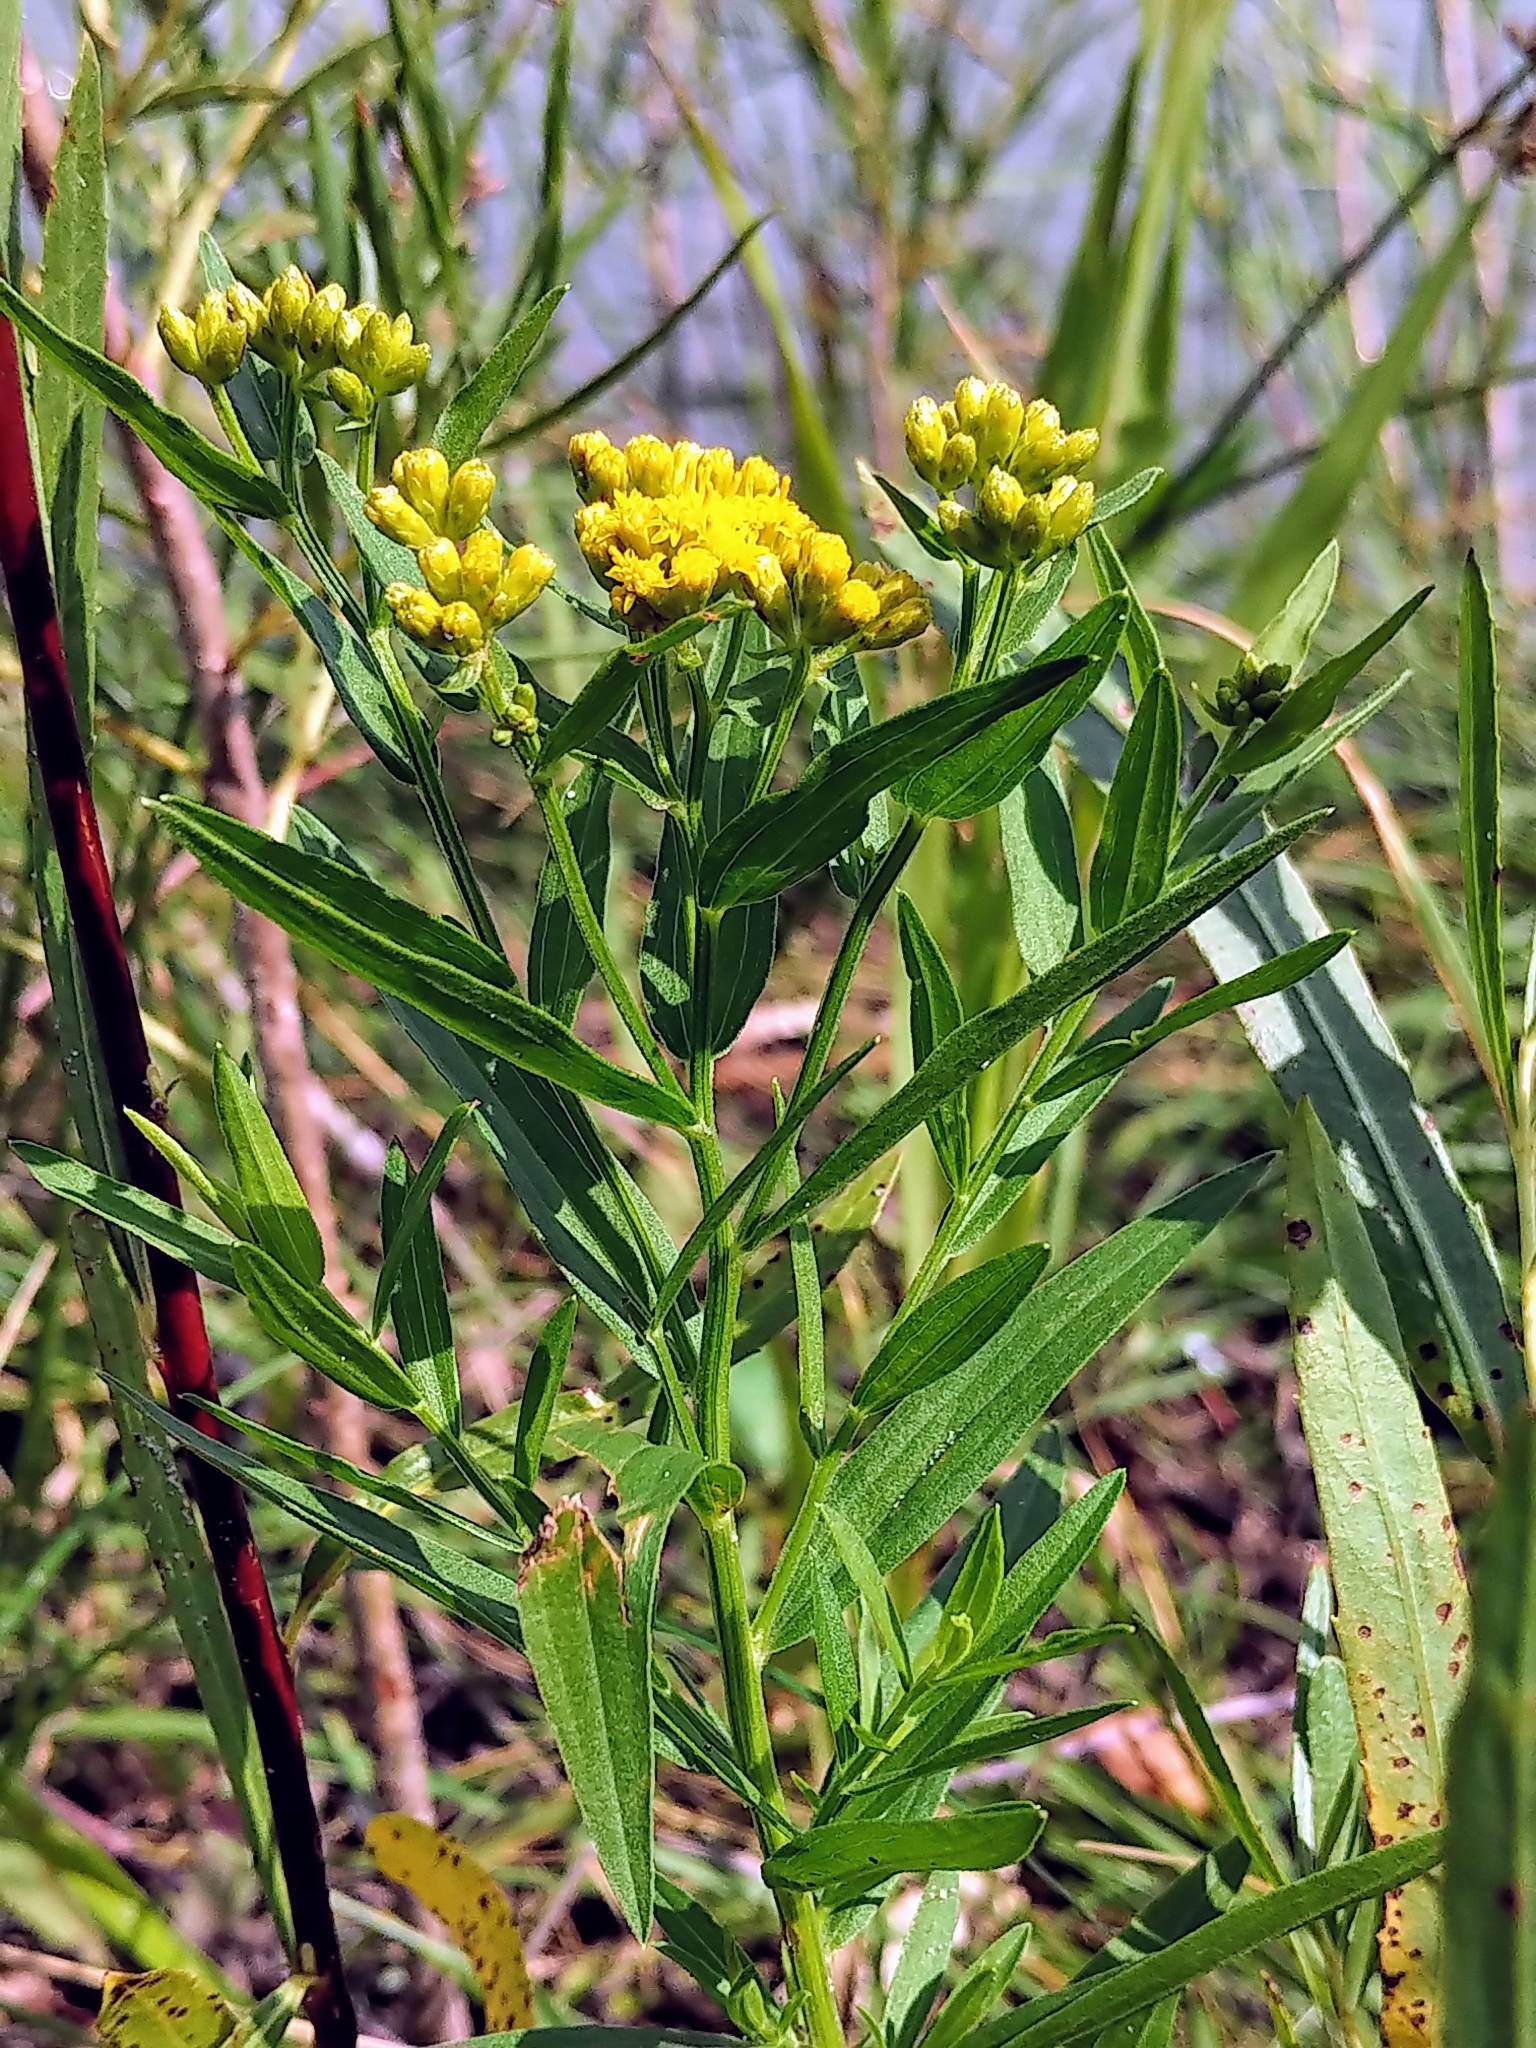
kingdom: Plantae
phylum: Tracheophyta
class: Magnoliopsida
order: Asterales
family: Asteraceae
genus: Euthamia
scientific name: Euthamia graminifolia
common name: Common goldentop
